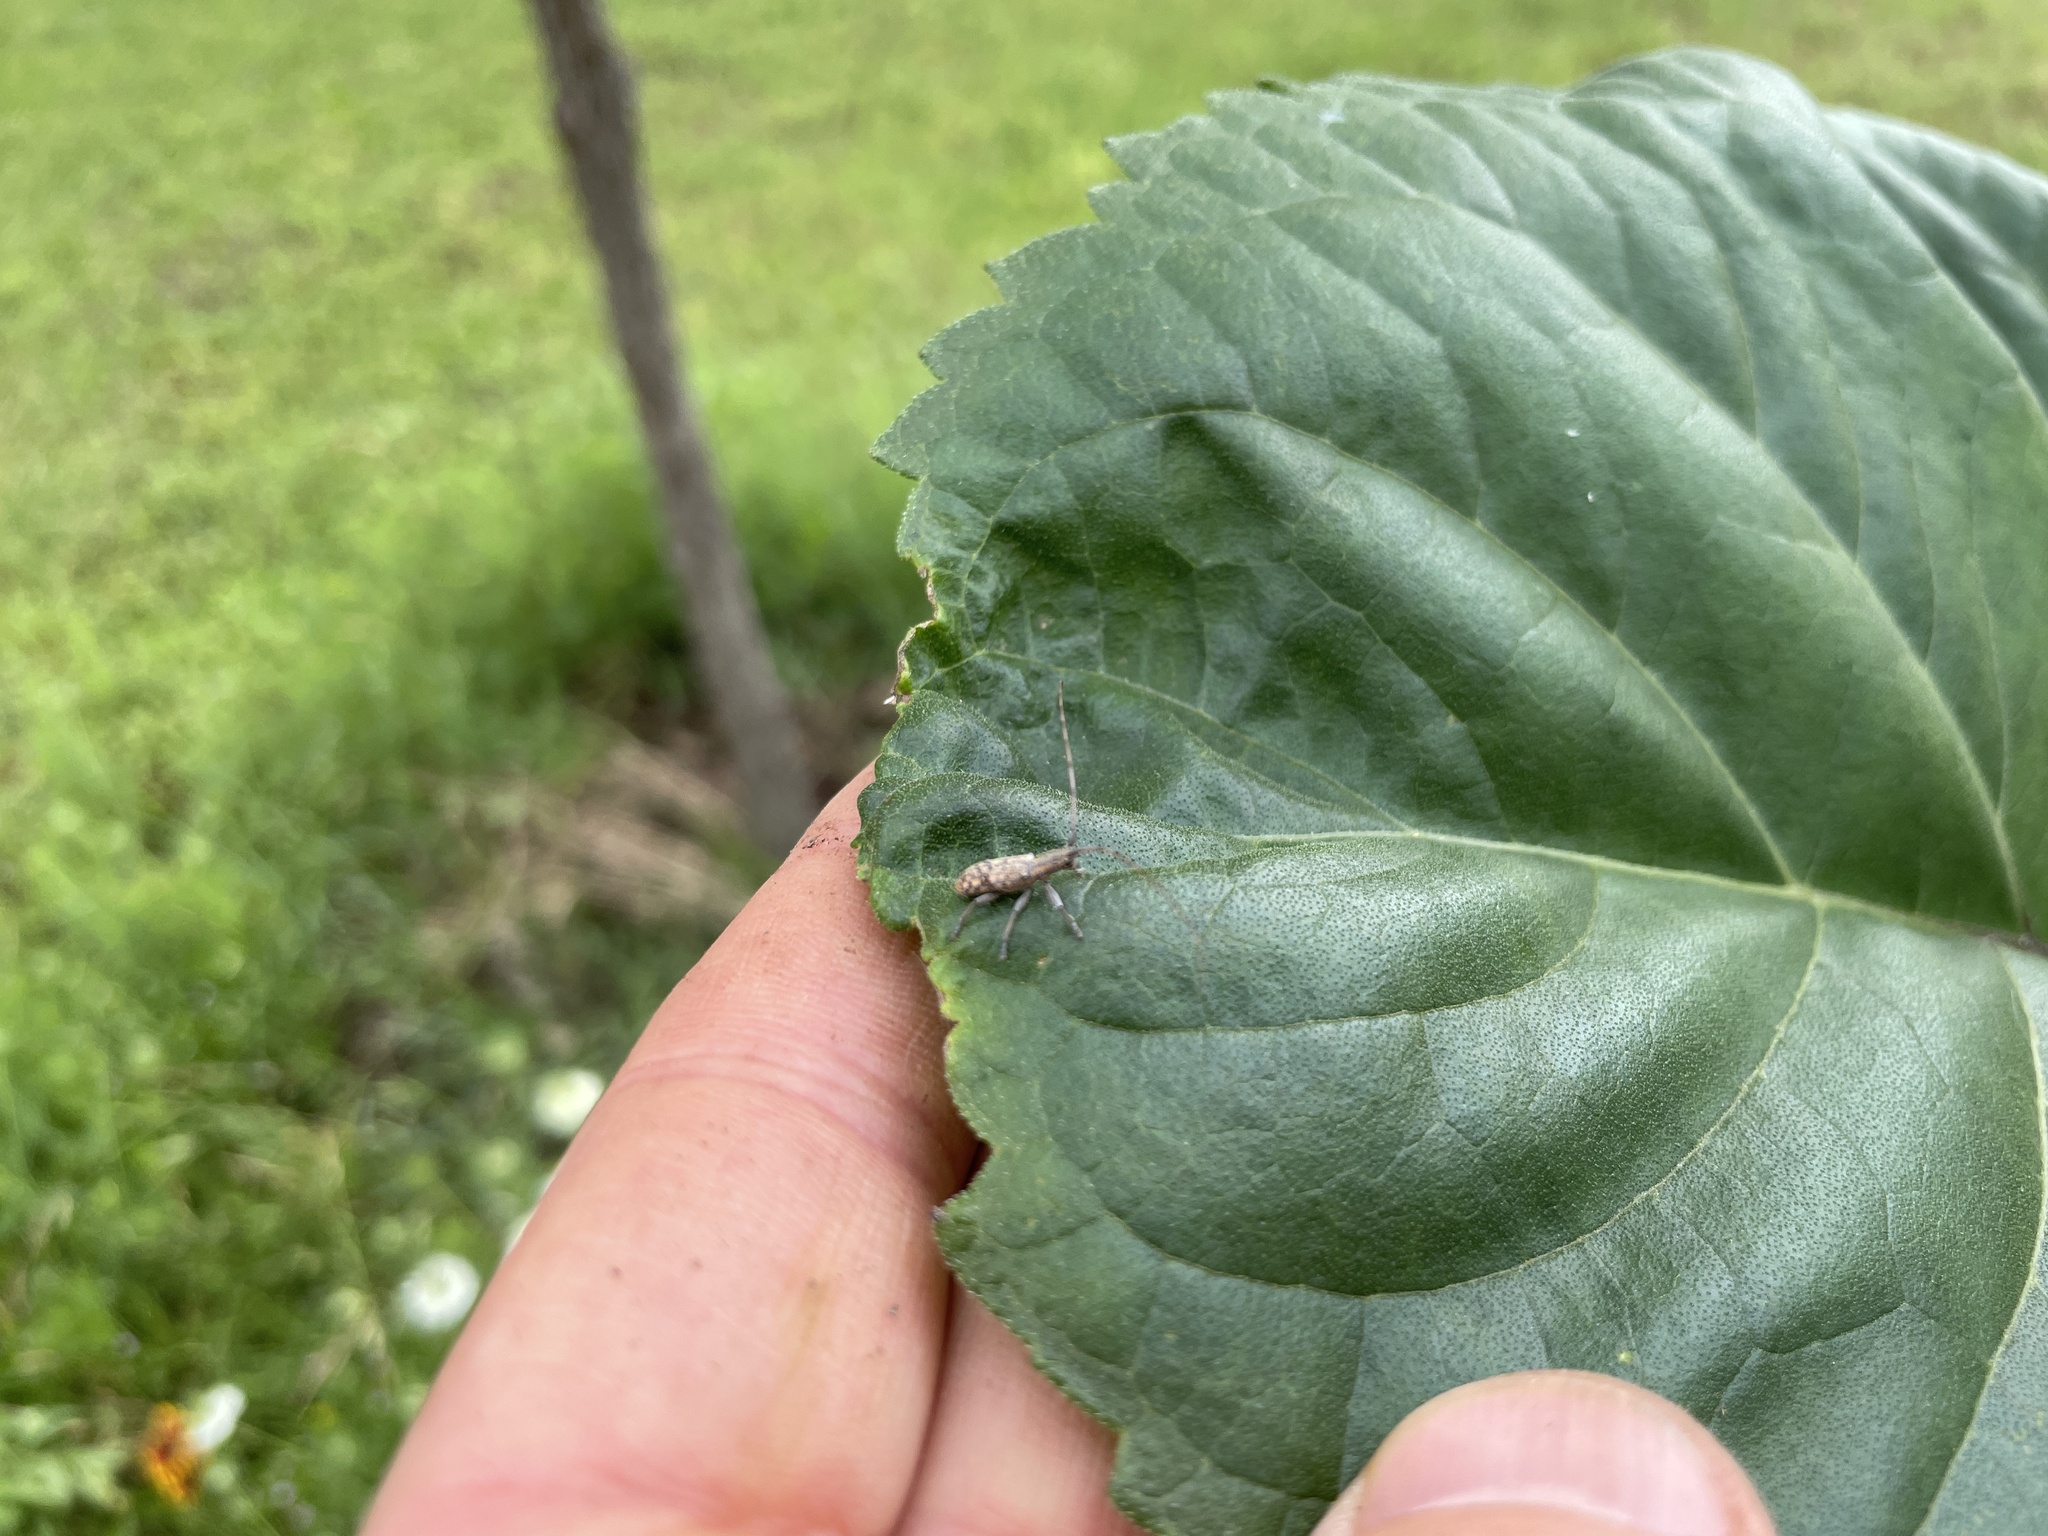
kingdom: Animalia
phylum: Arthropoda
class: Insecta
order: Coleoptera
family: Cerambycidae
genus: Dorcaschema
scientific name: Dorcaschema alternatum
